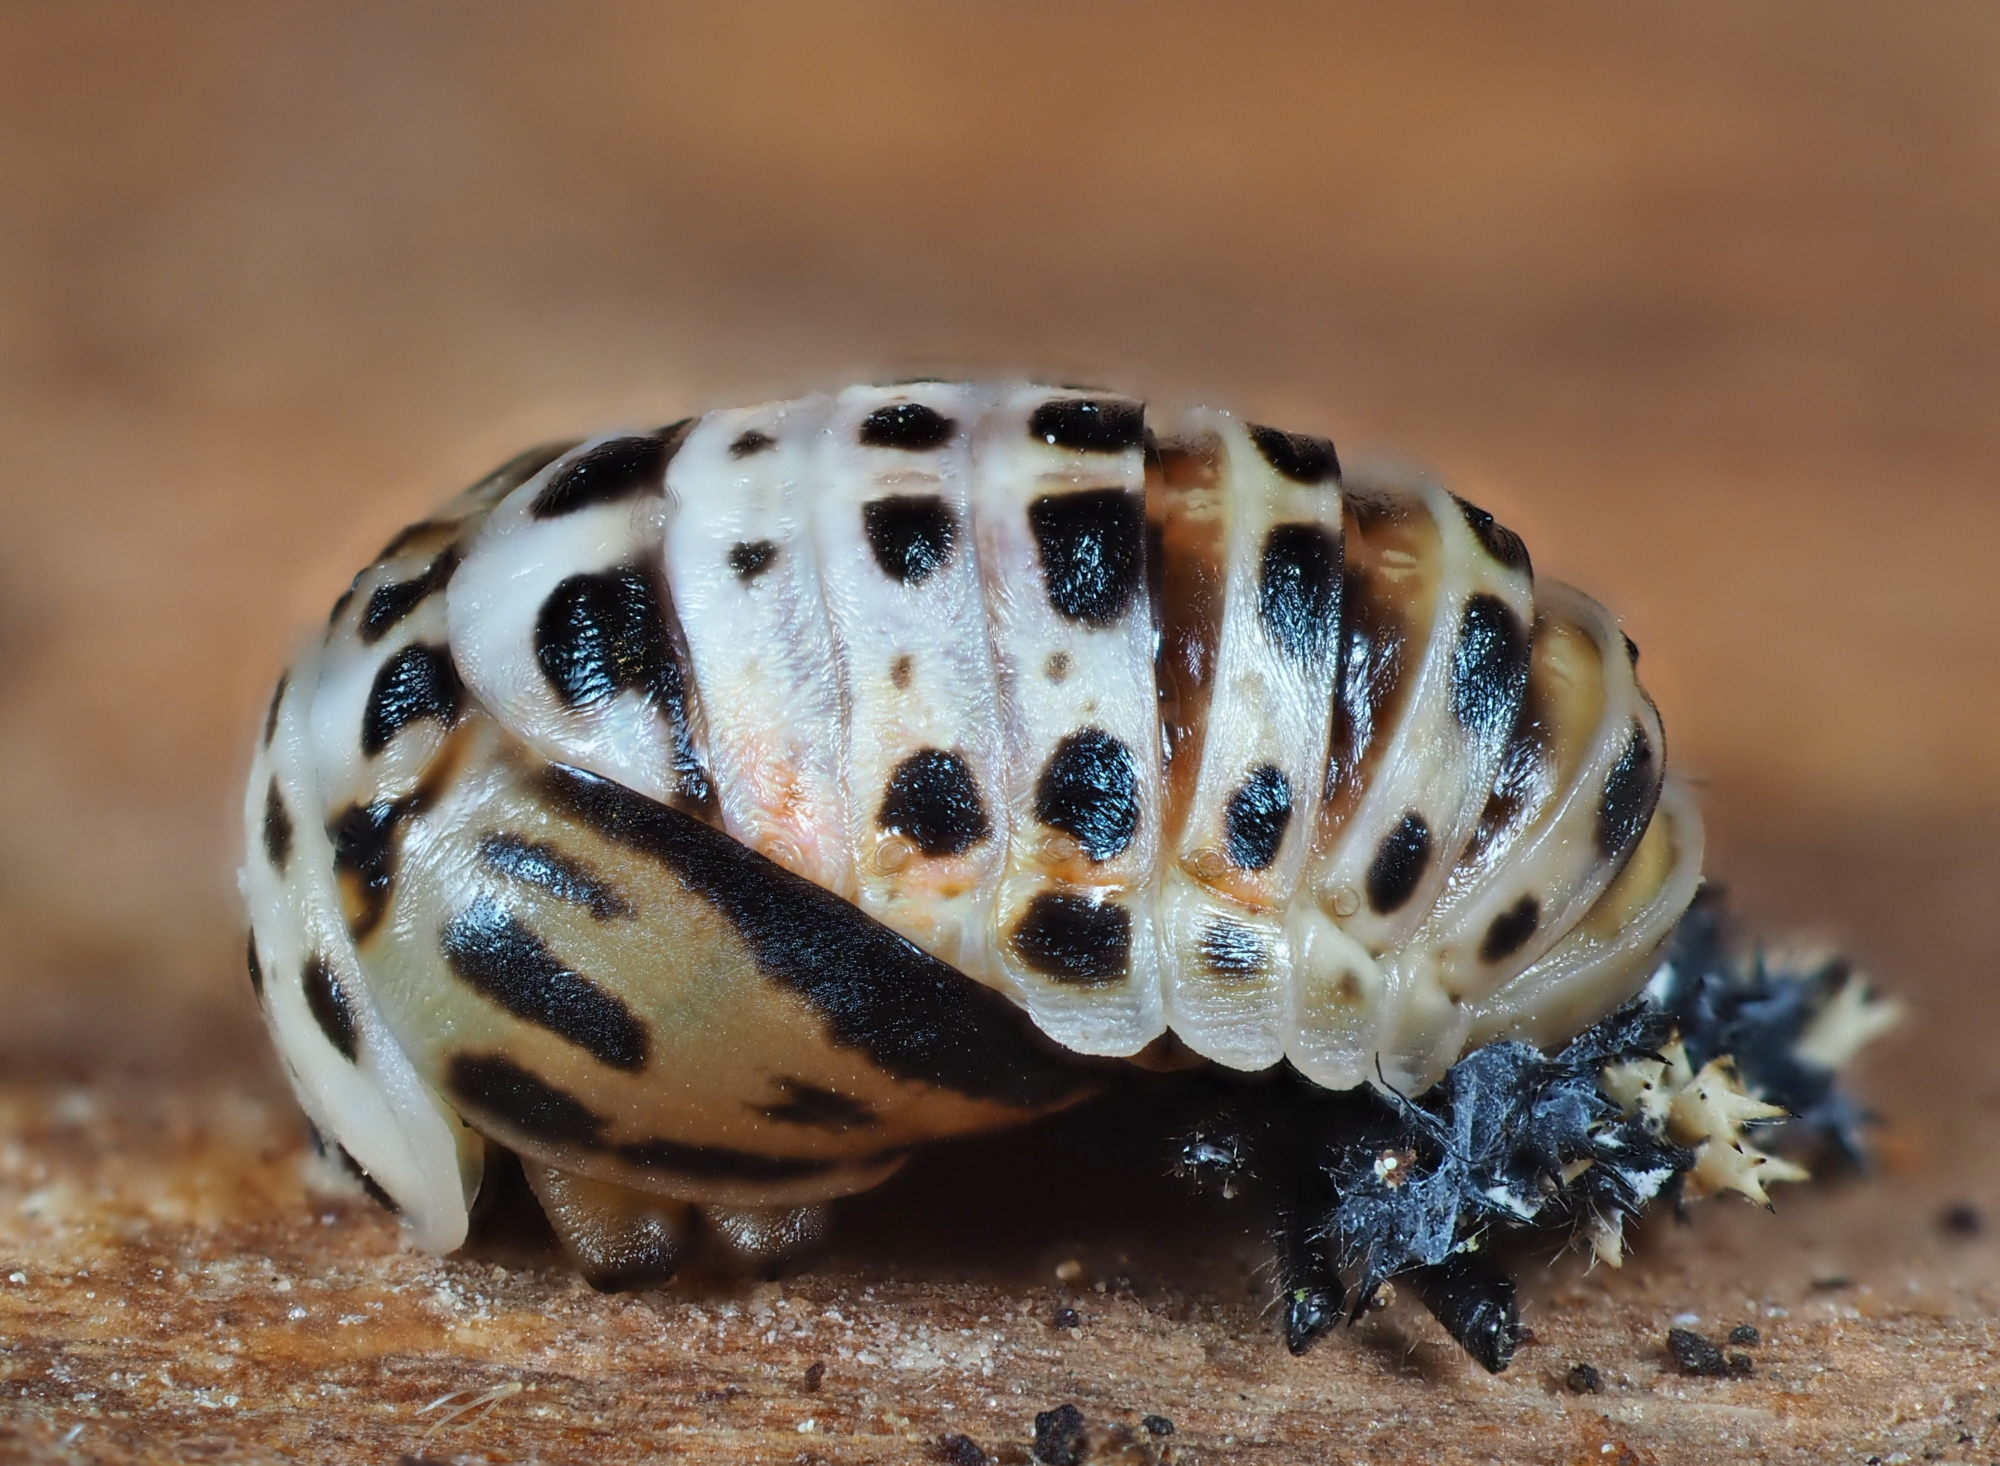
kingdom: Animalia
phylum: Arthropoda
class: Insecta
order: Coleoptera
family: Coccinellidae
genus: Harmonia
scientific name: Harmonia quadripunctata
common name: Cream-streaked ladybird
